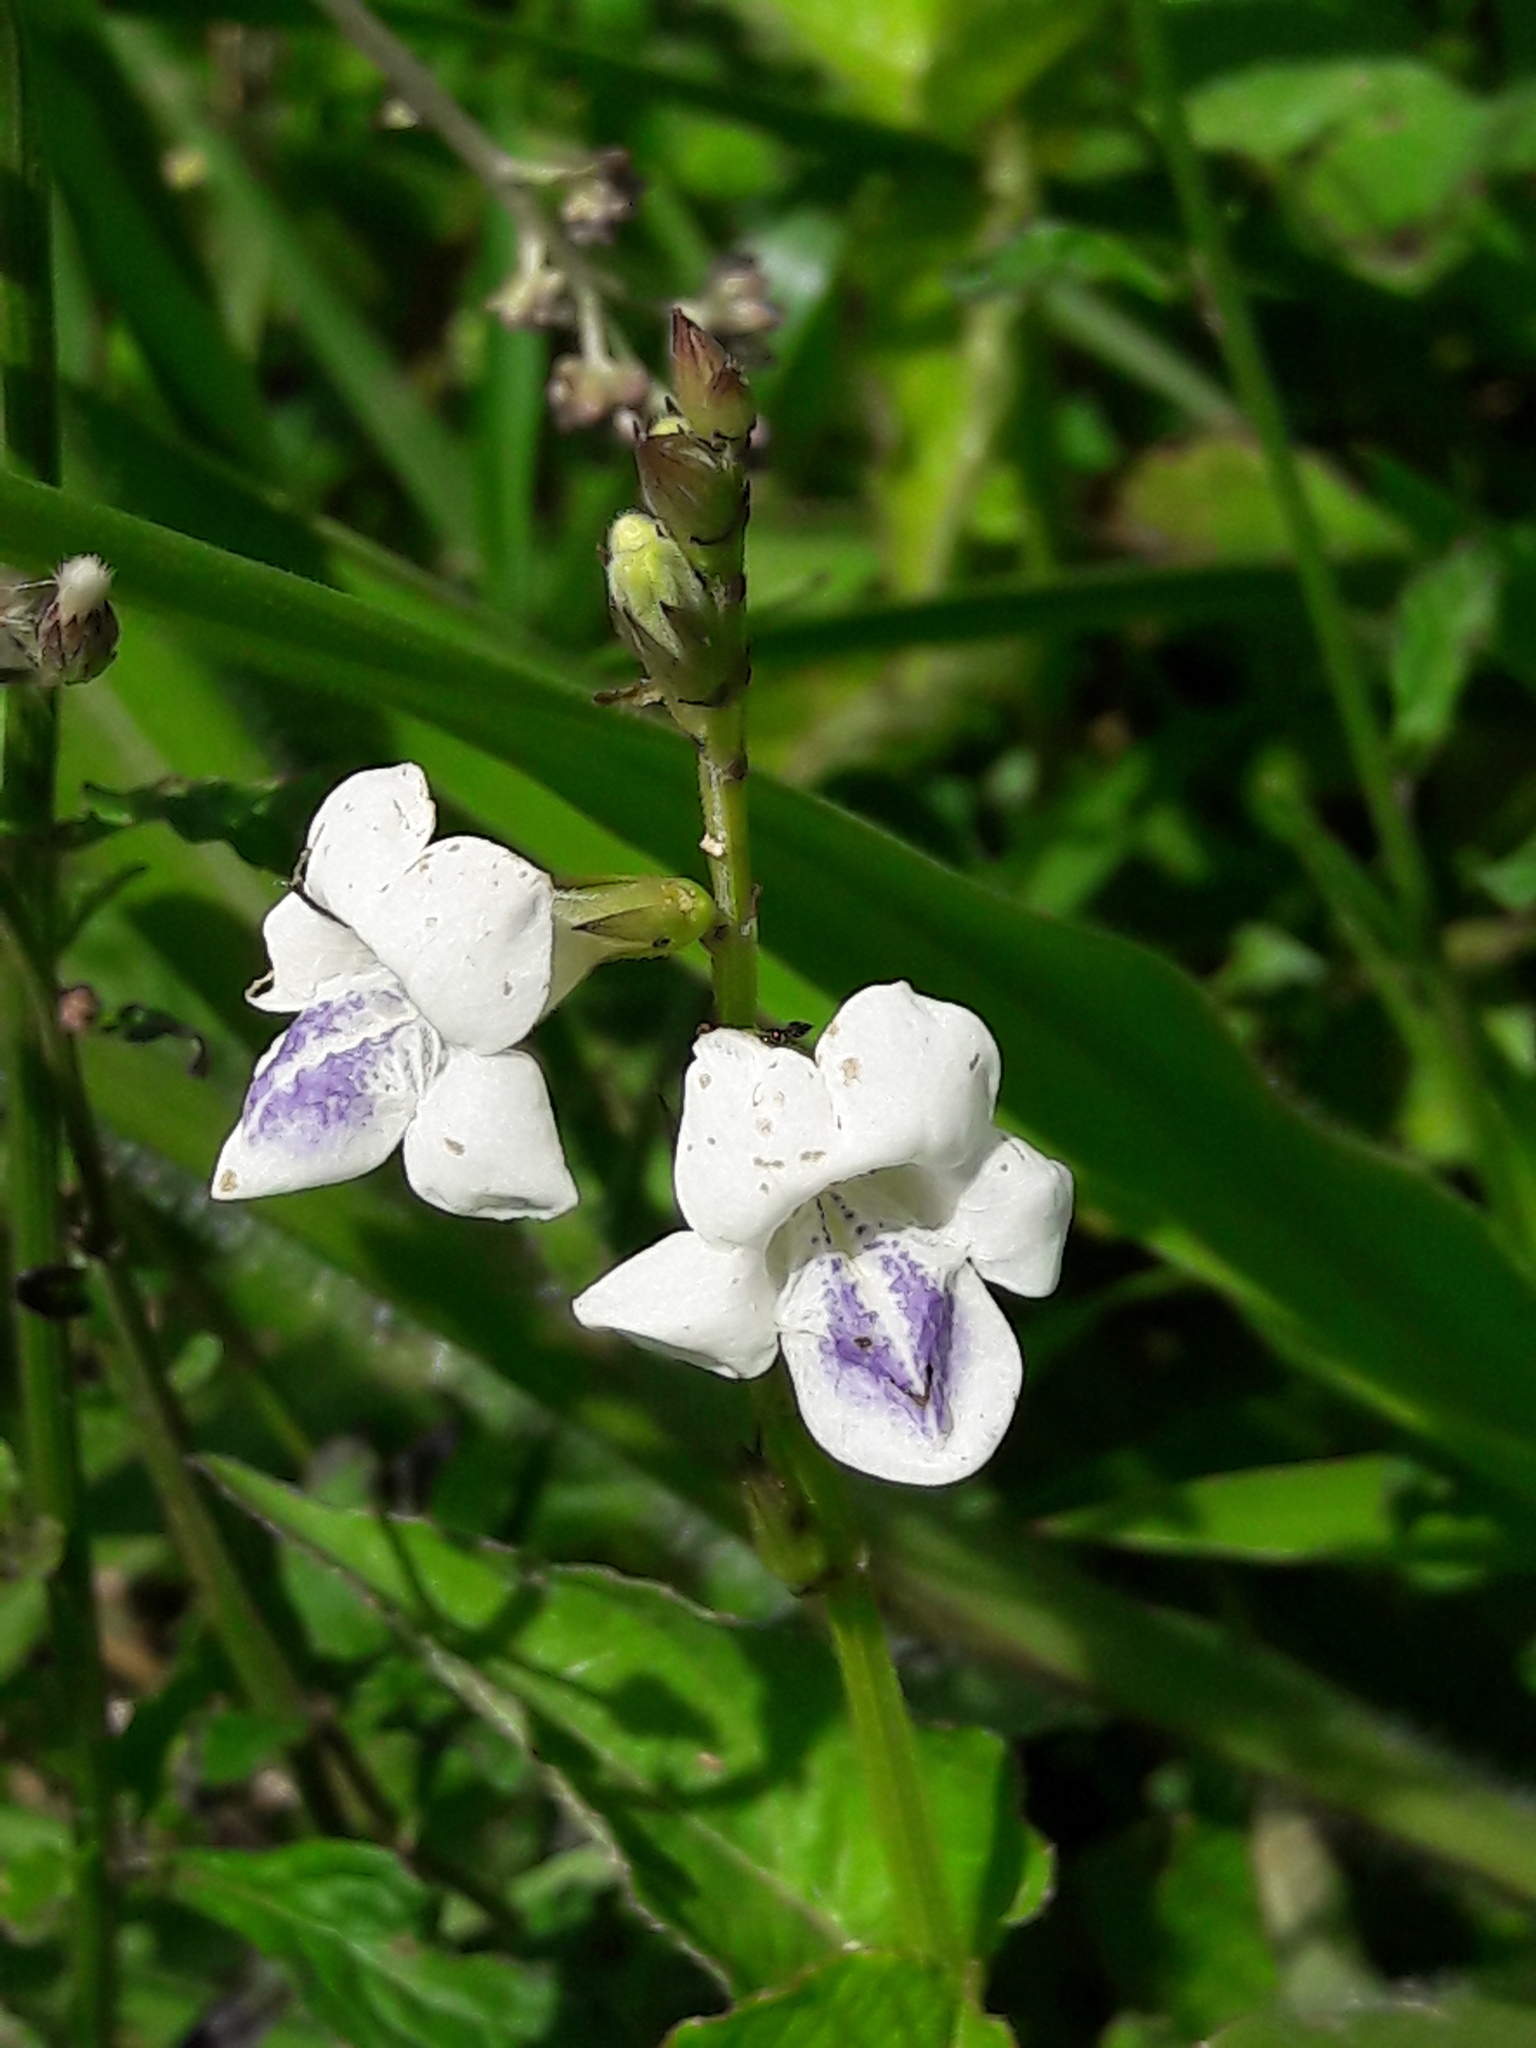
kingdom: Plantae
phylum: Tracheophyta
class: Magnoliopsida
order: Lamiales
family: Acanthaceae
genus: Asystasia
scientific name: Asystasia intrusa
